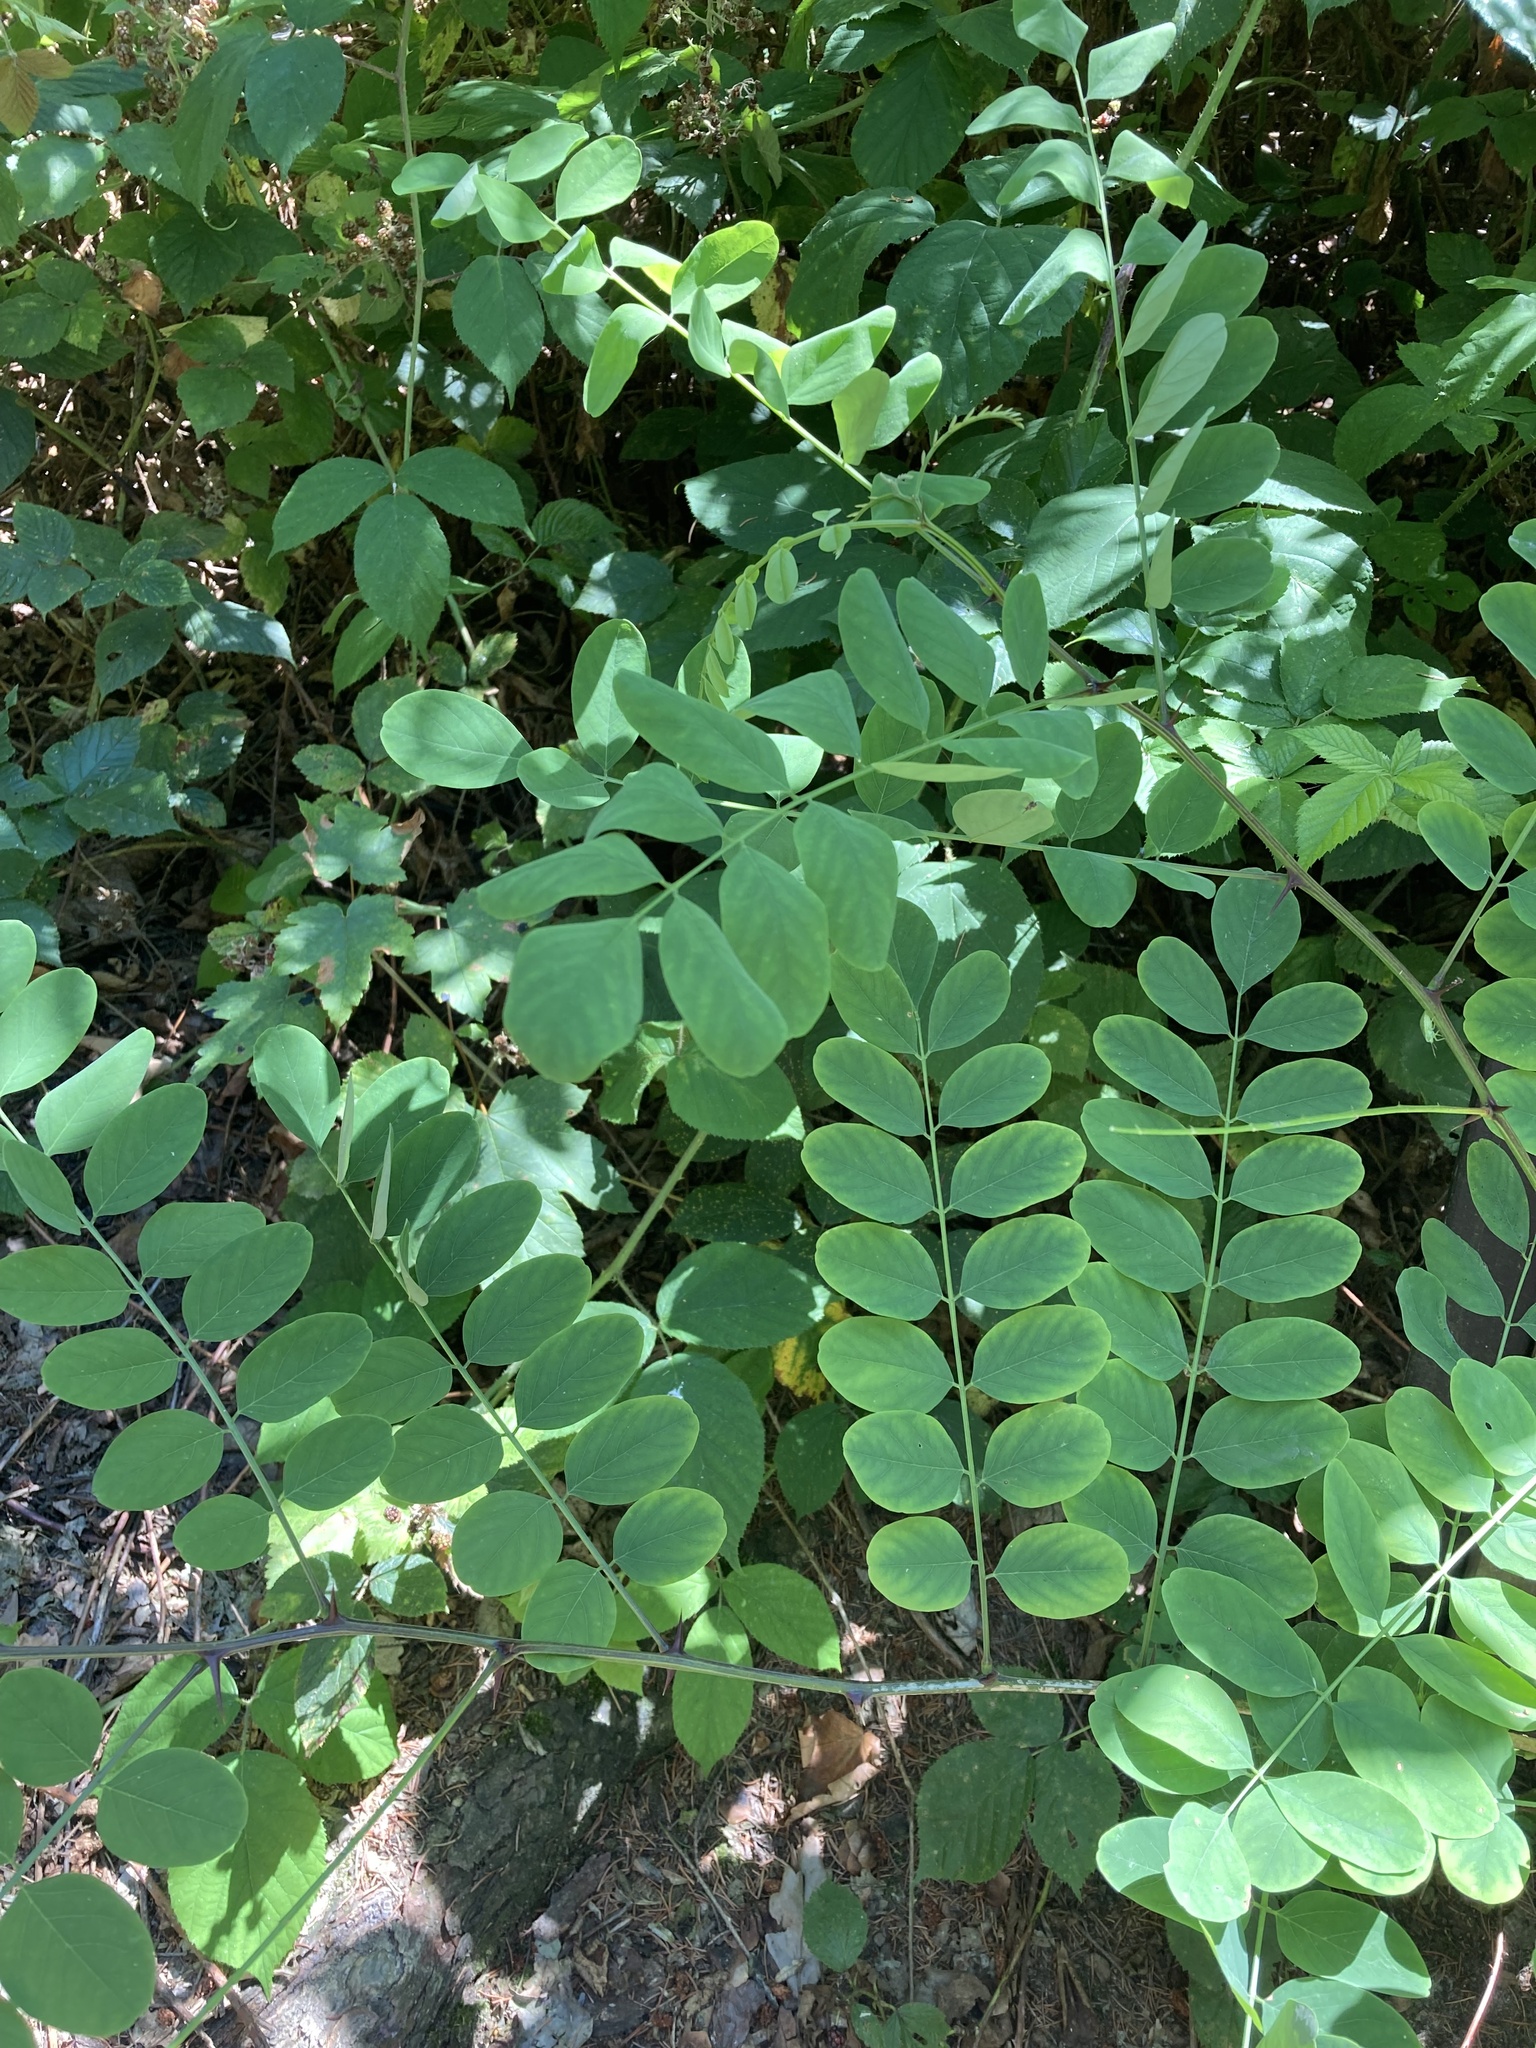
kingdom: Plantae
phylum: Tracheophyta
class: Magnoliopsida
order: Fabales
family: Fabaceae
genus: Robinia
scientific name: Robinia pseudoacacia
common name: Black locust
